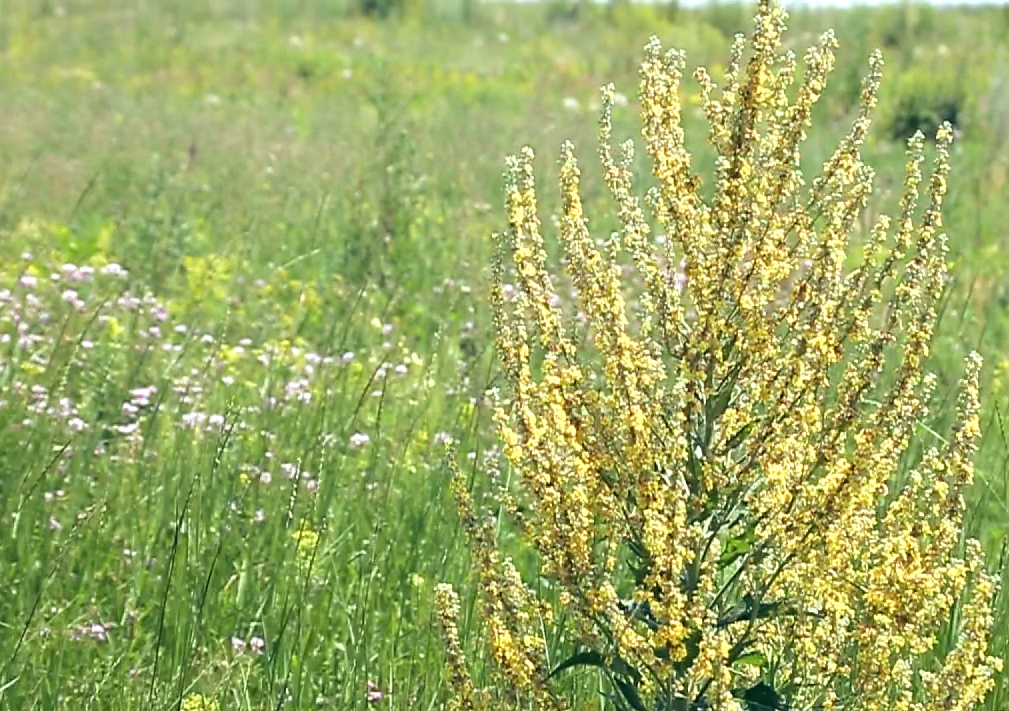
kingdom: Plantae
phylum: Tracheophyta
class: Magnoliopsida
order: Lamiales
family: Scrophulariaceae
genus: Verbascum
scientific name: Verbascum lychnitis
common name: White mullein
